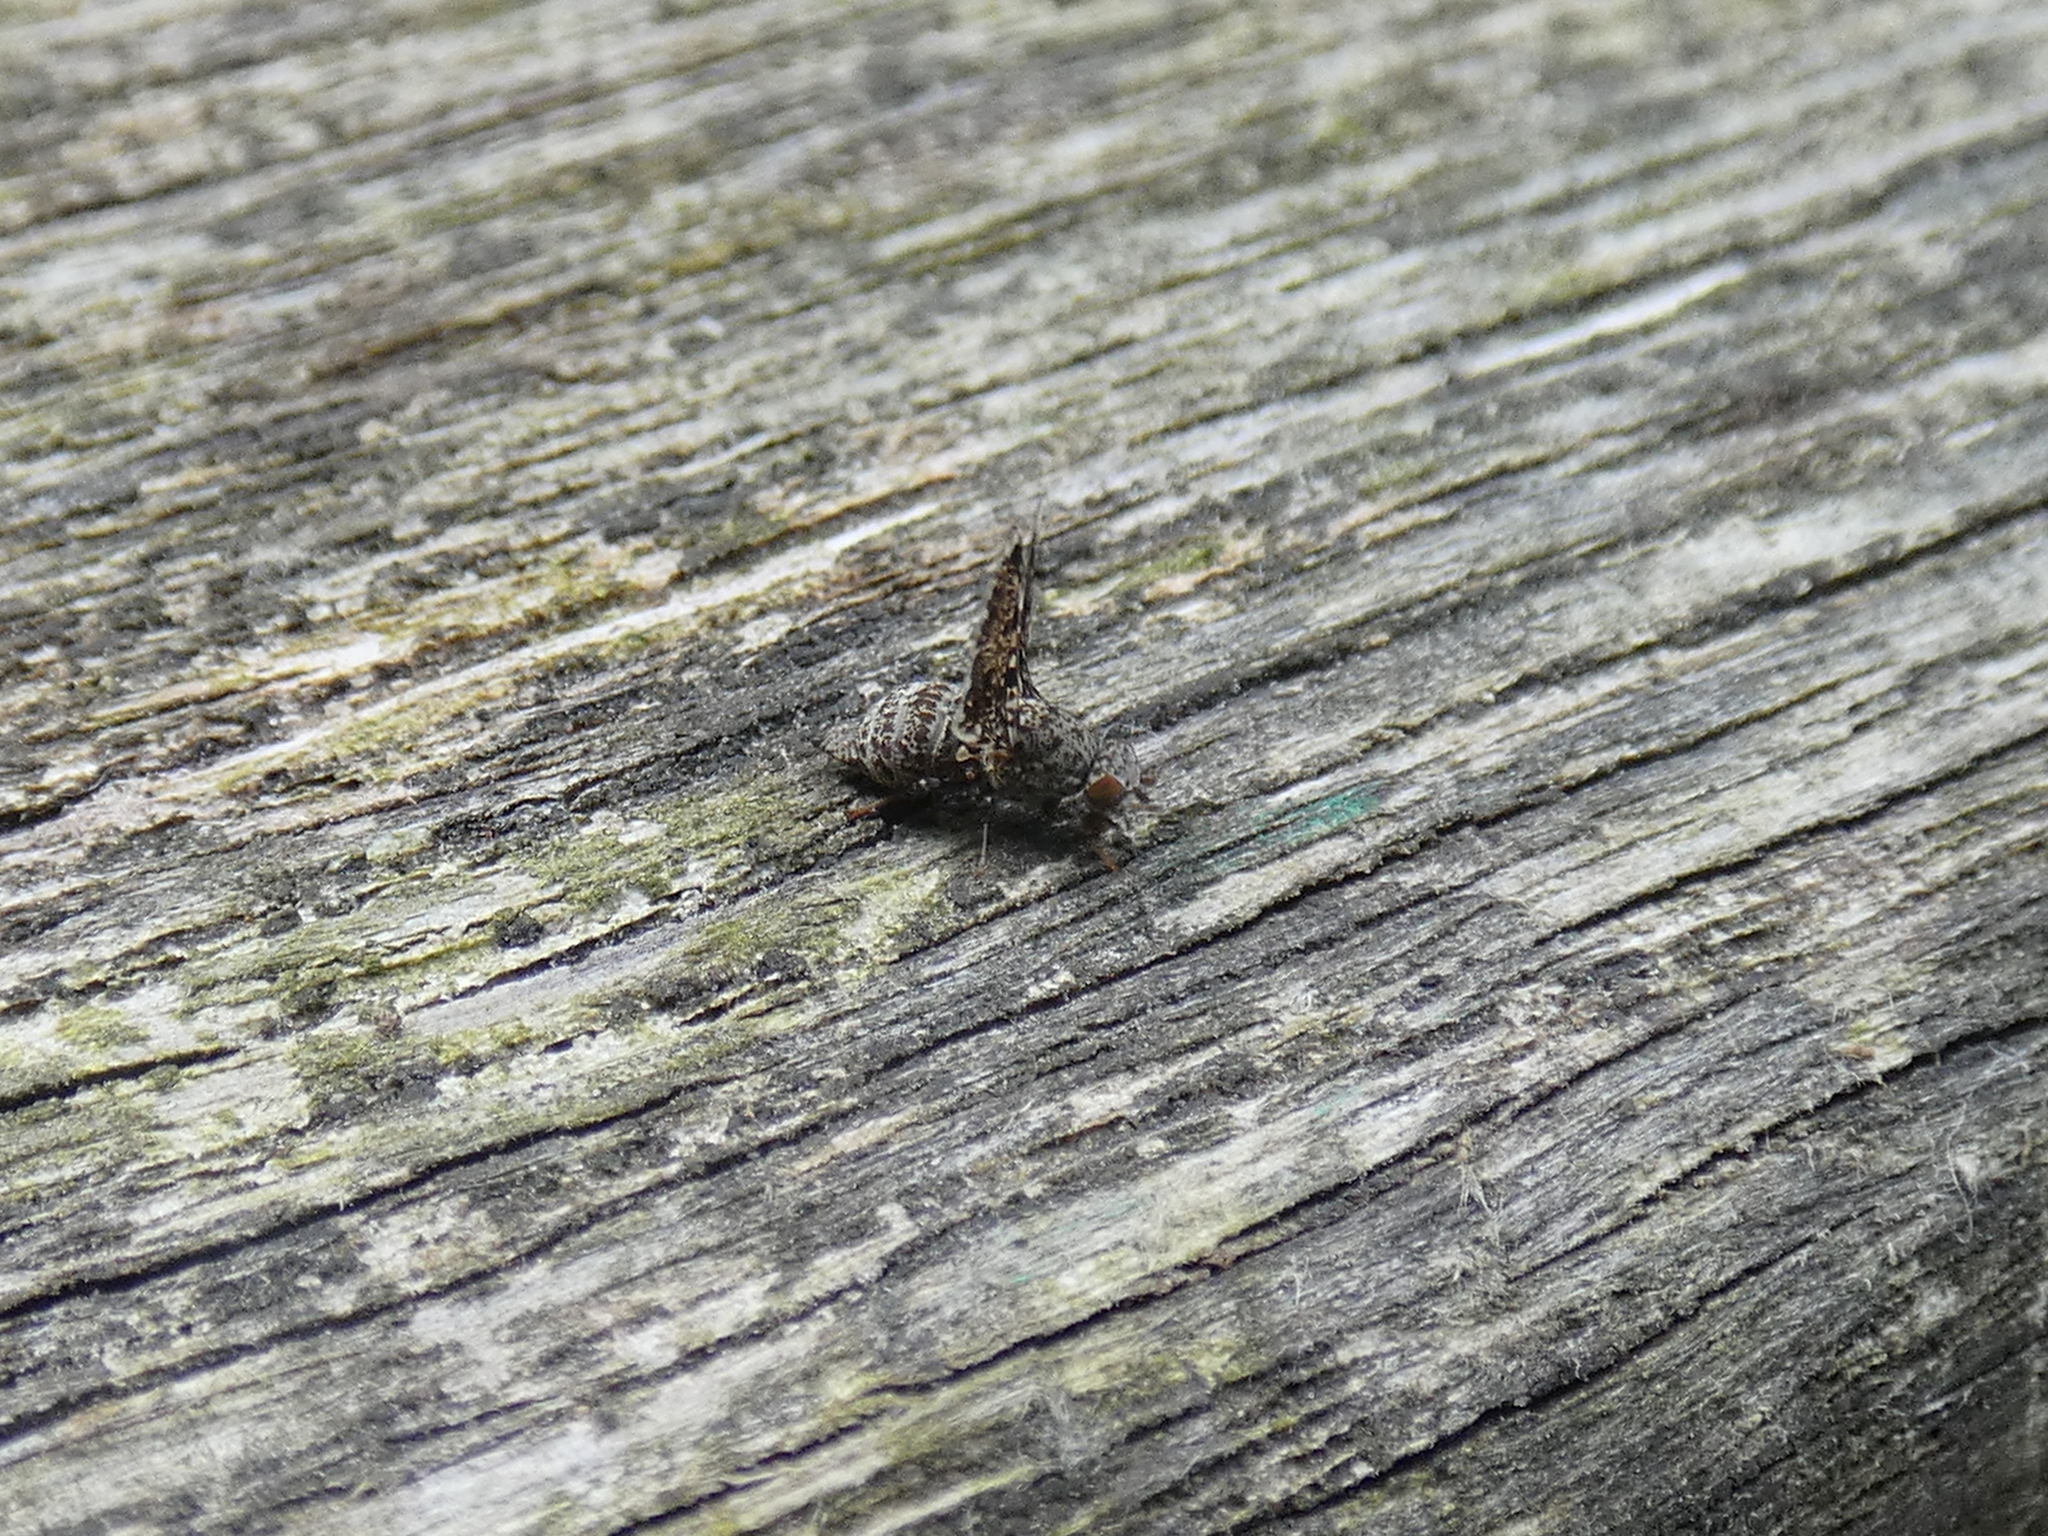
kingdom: Animalia
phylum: Arthropoda
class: Insecta
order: Diptera
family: Ulidiidae
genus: Callopistromyia
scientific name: Callopistromyia annulipes
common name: Peacock fly
